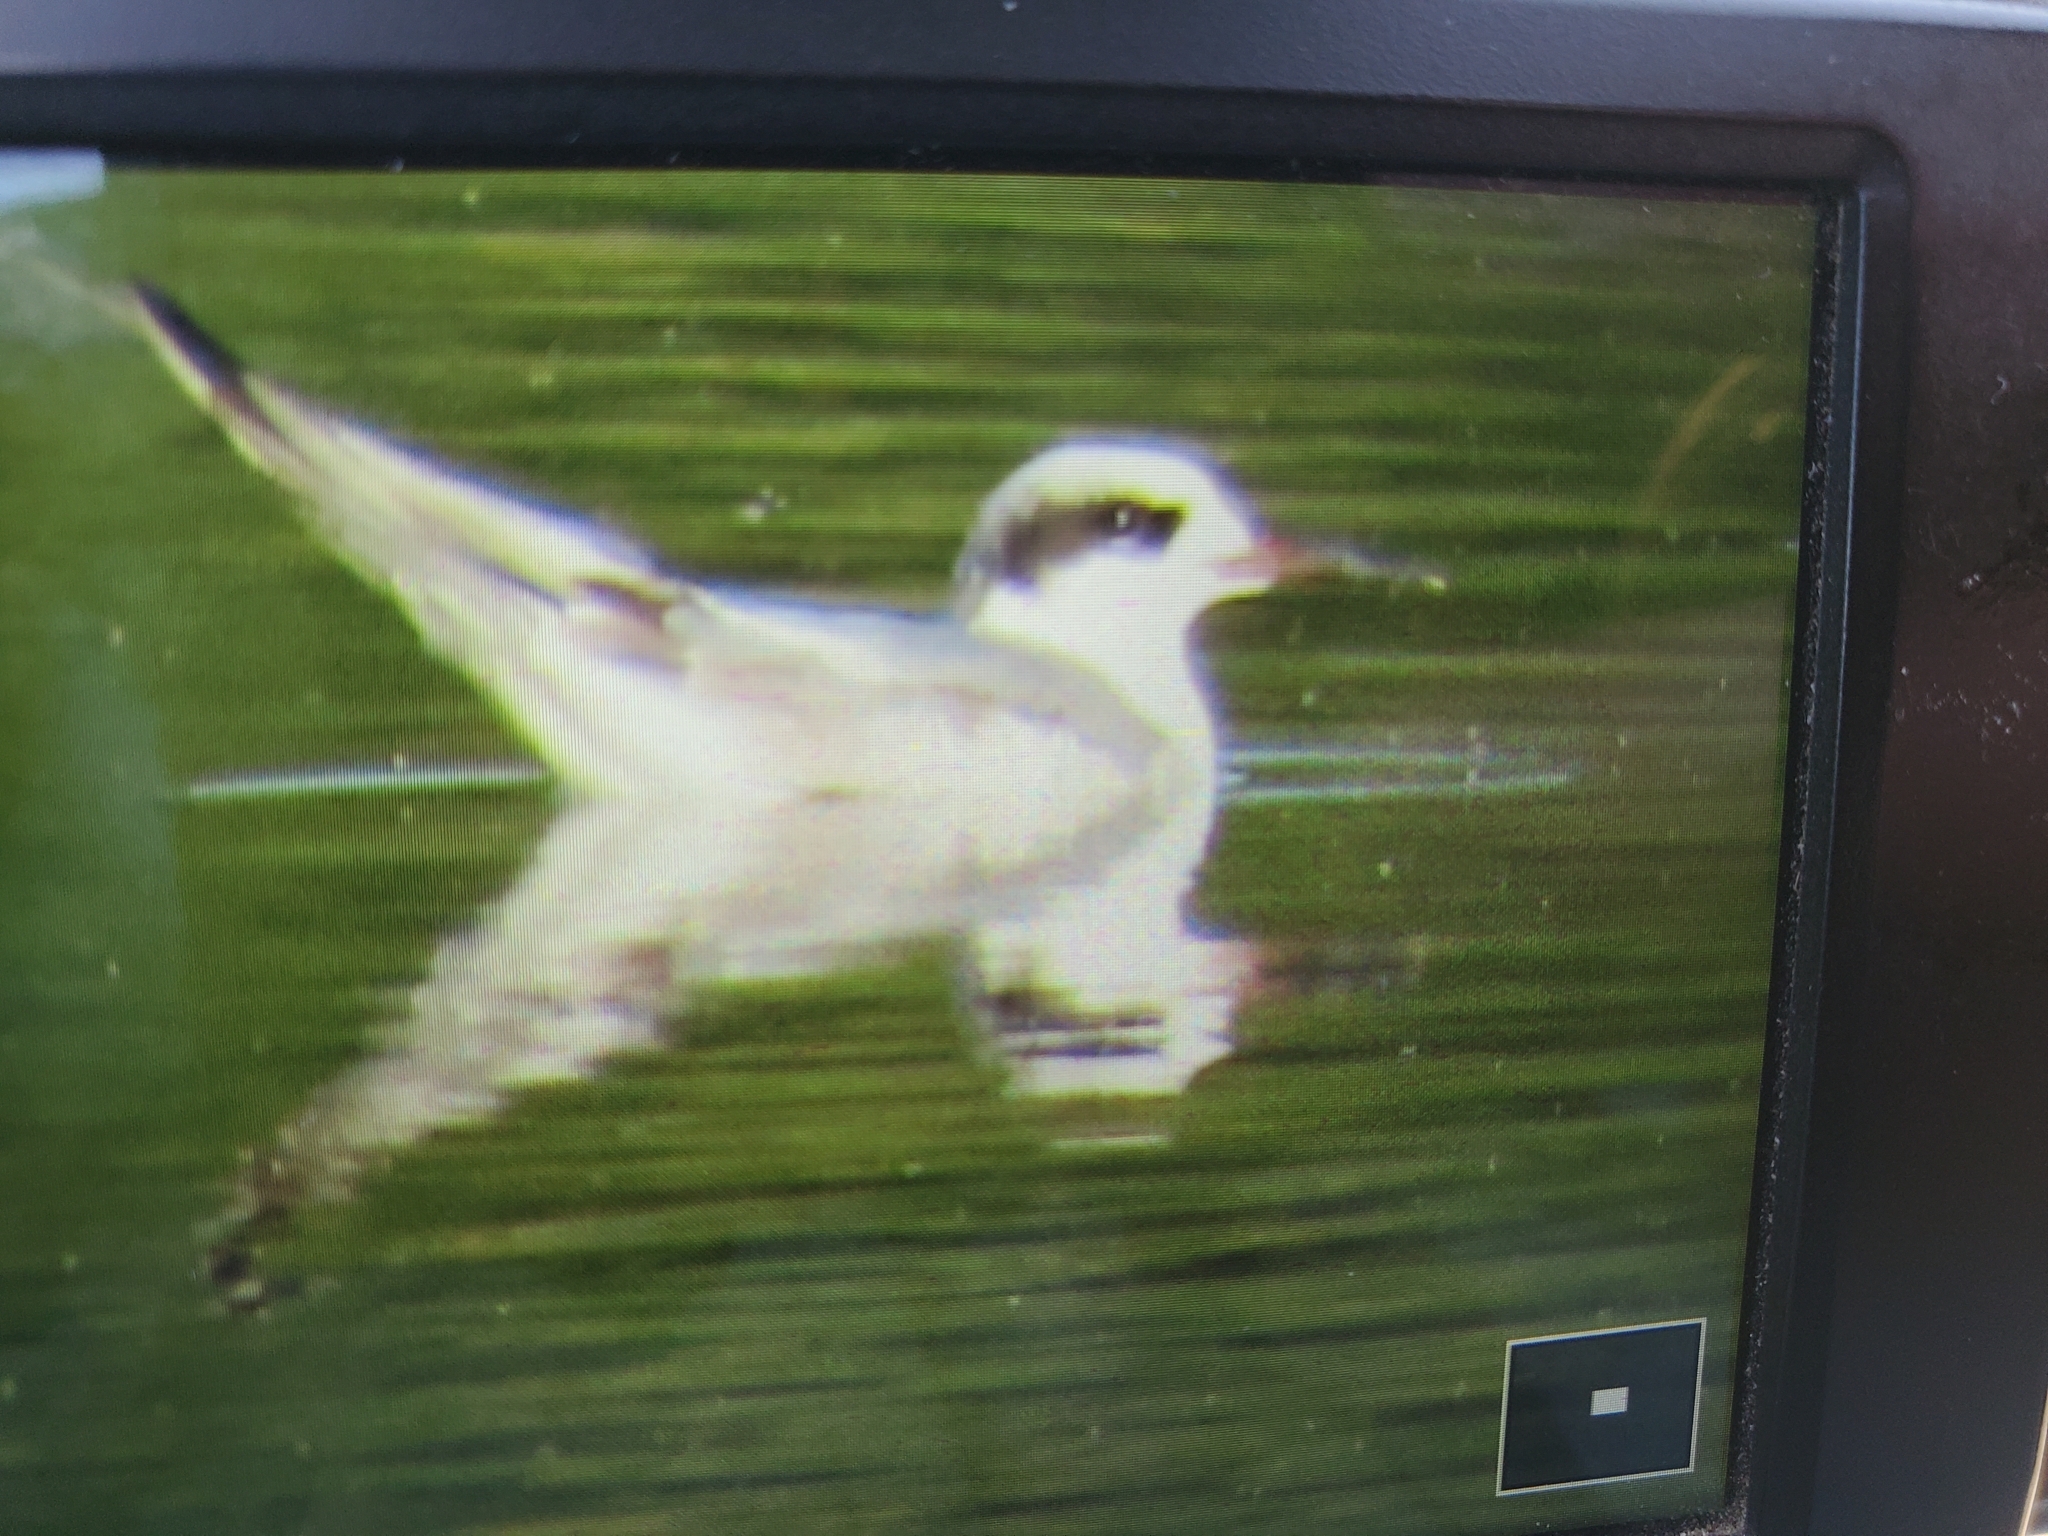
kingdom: Animalia
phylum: Chordata
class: Aves
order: Charadriiformes
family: Laridae
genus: Sterna
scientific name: Sterna forsteri
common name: Forster's tern
